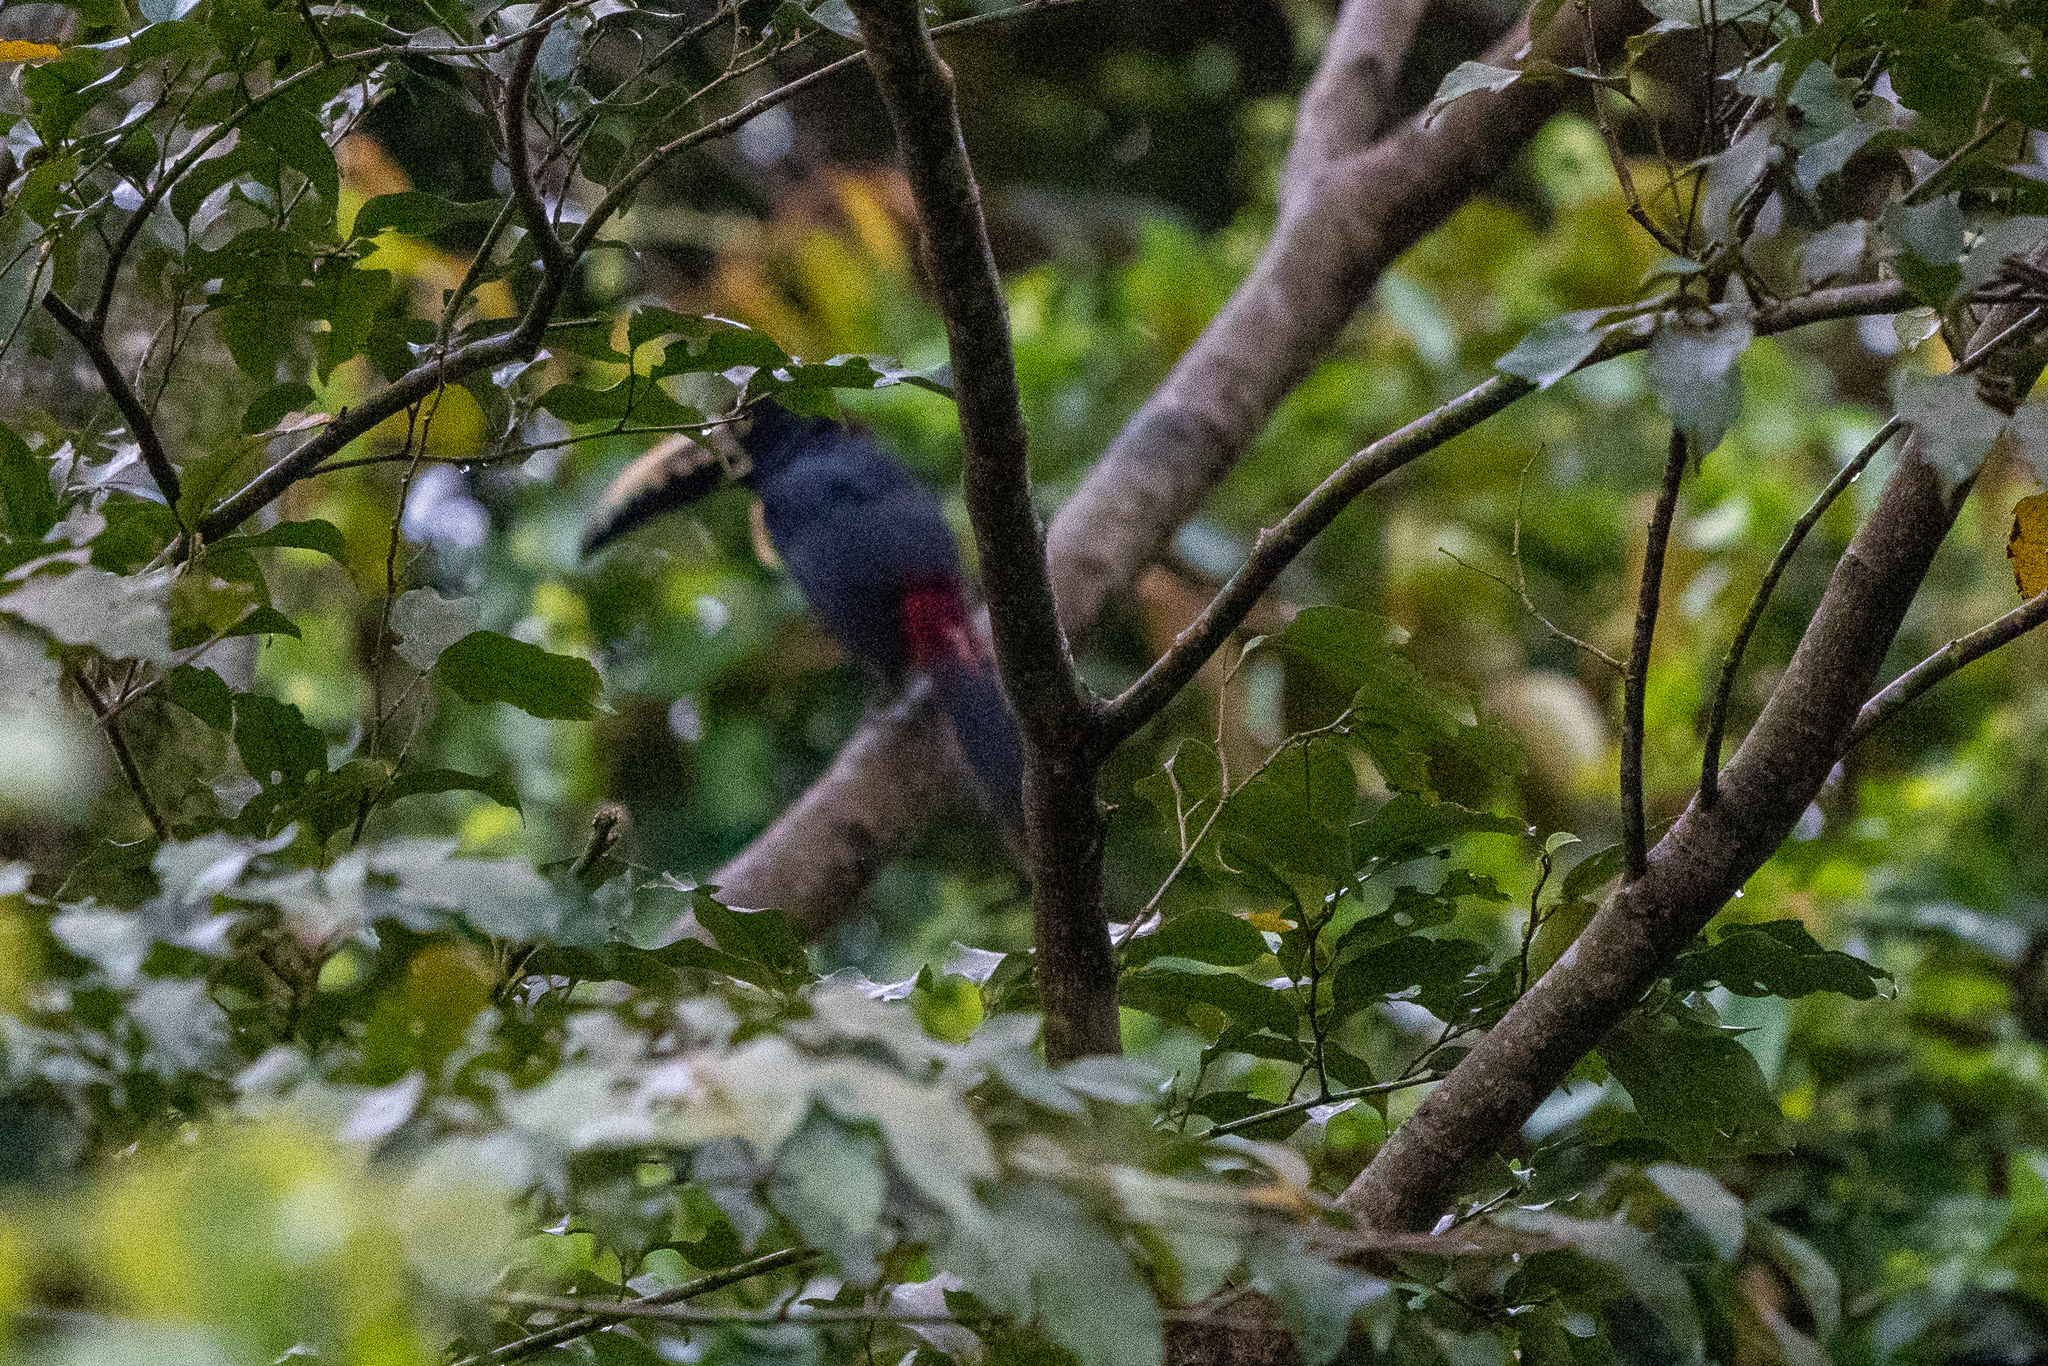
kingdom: Animalia
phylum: Chordata
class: Aves
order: Piciformes
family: Ramphastidae
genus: Pteroglossus
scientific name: Pteroglossus torquatus
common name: Collared aracari
